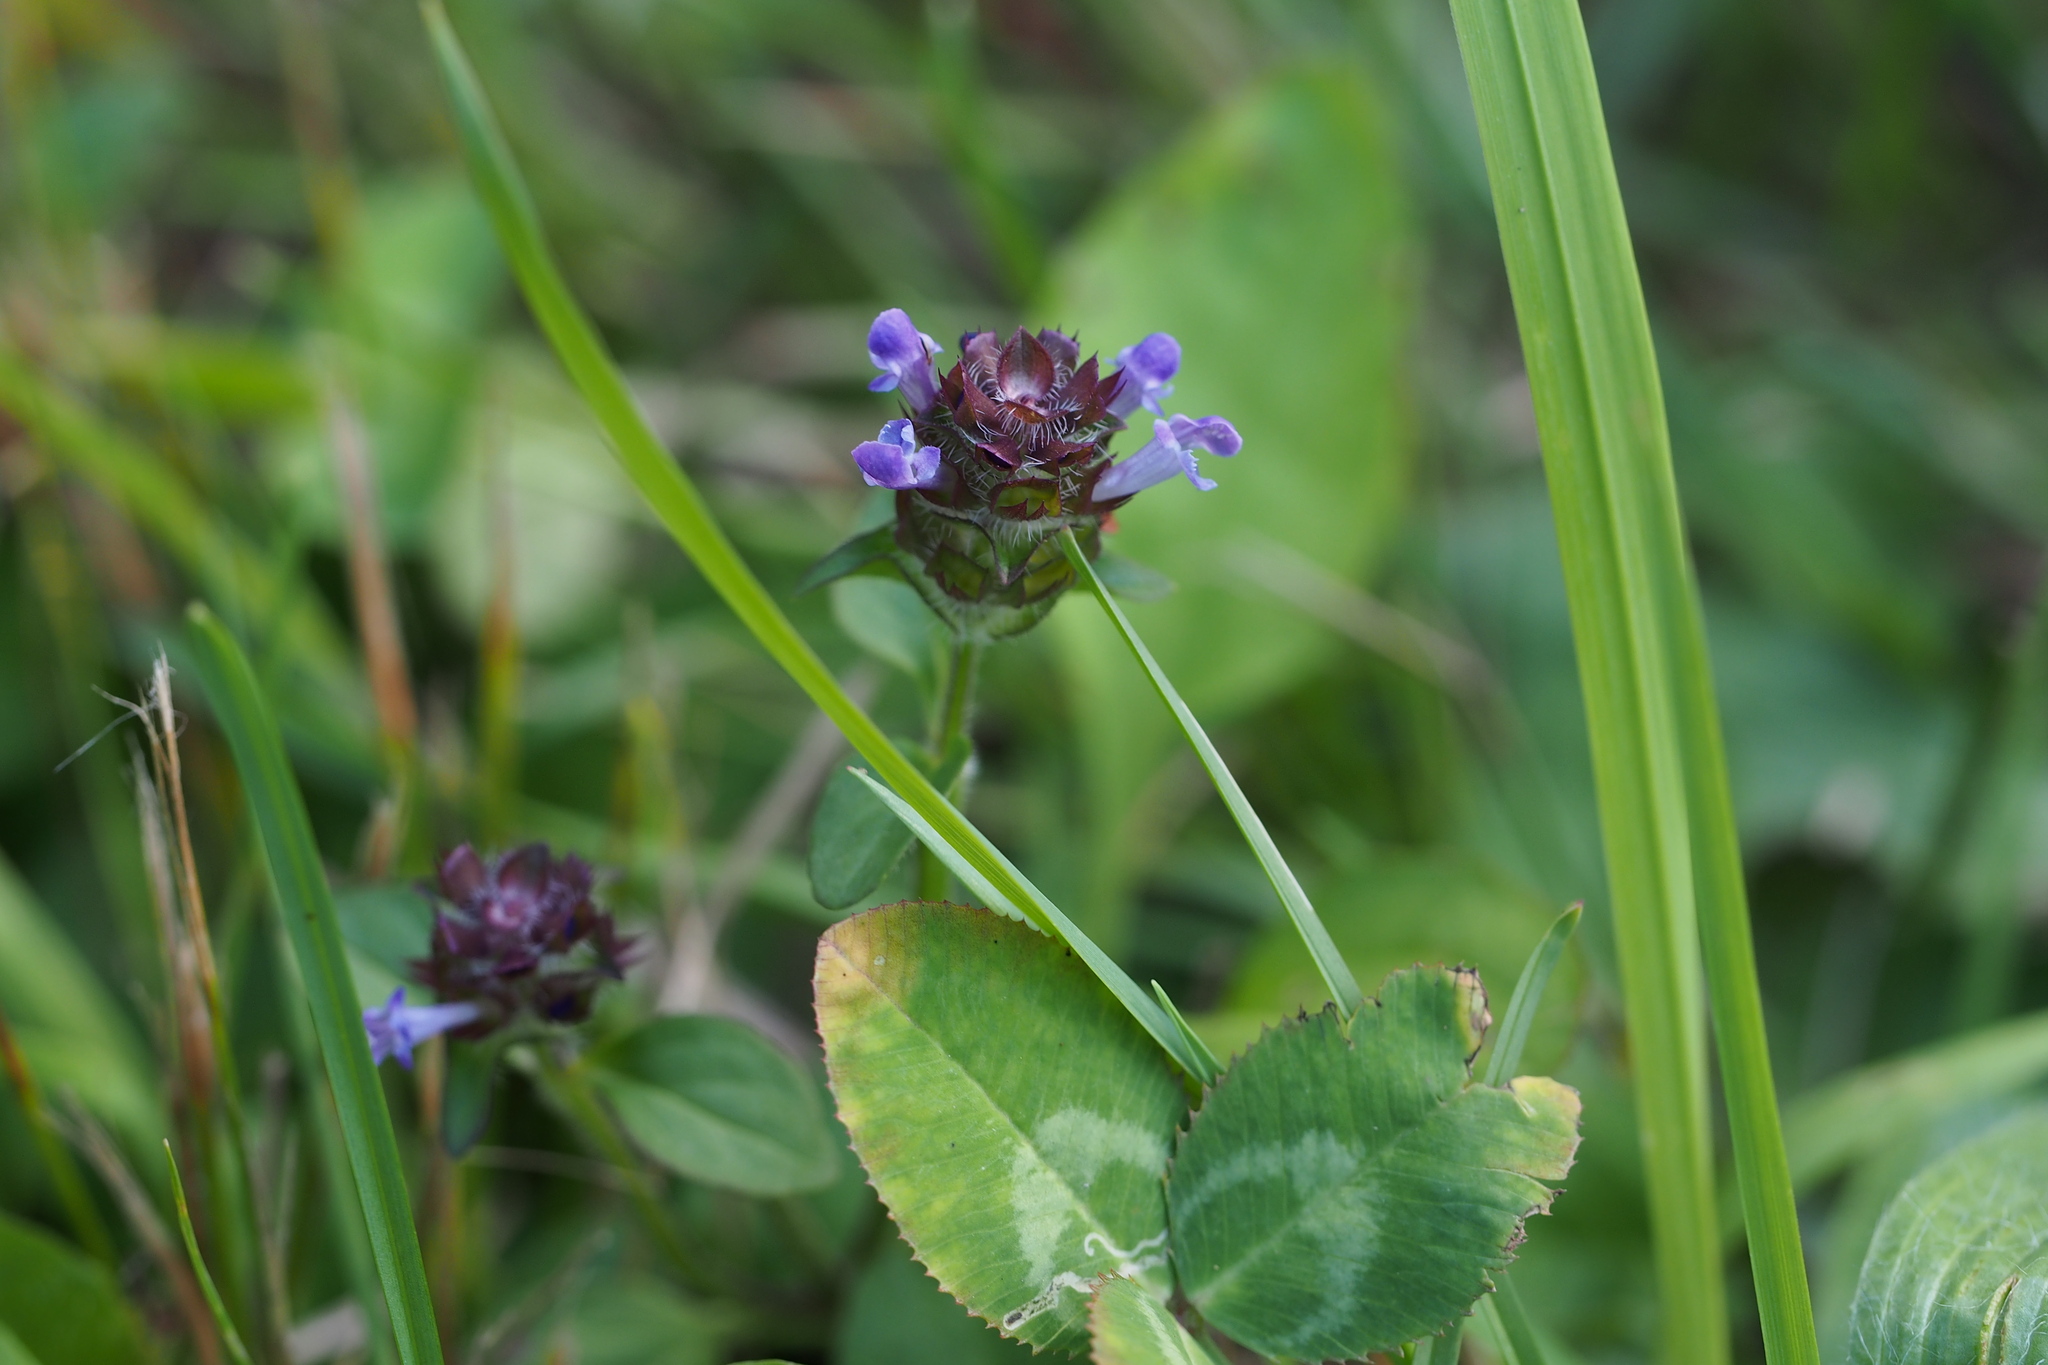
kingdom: Plantae
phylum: Tracheophyta
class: Magnoliopsida
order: Lamiales
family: Lamiaceae
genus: Prunella
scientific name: Prunella vulgaris
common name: Heal-all
